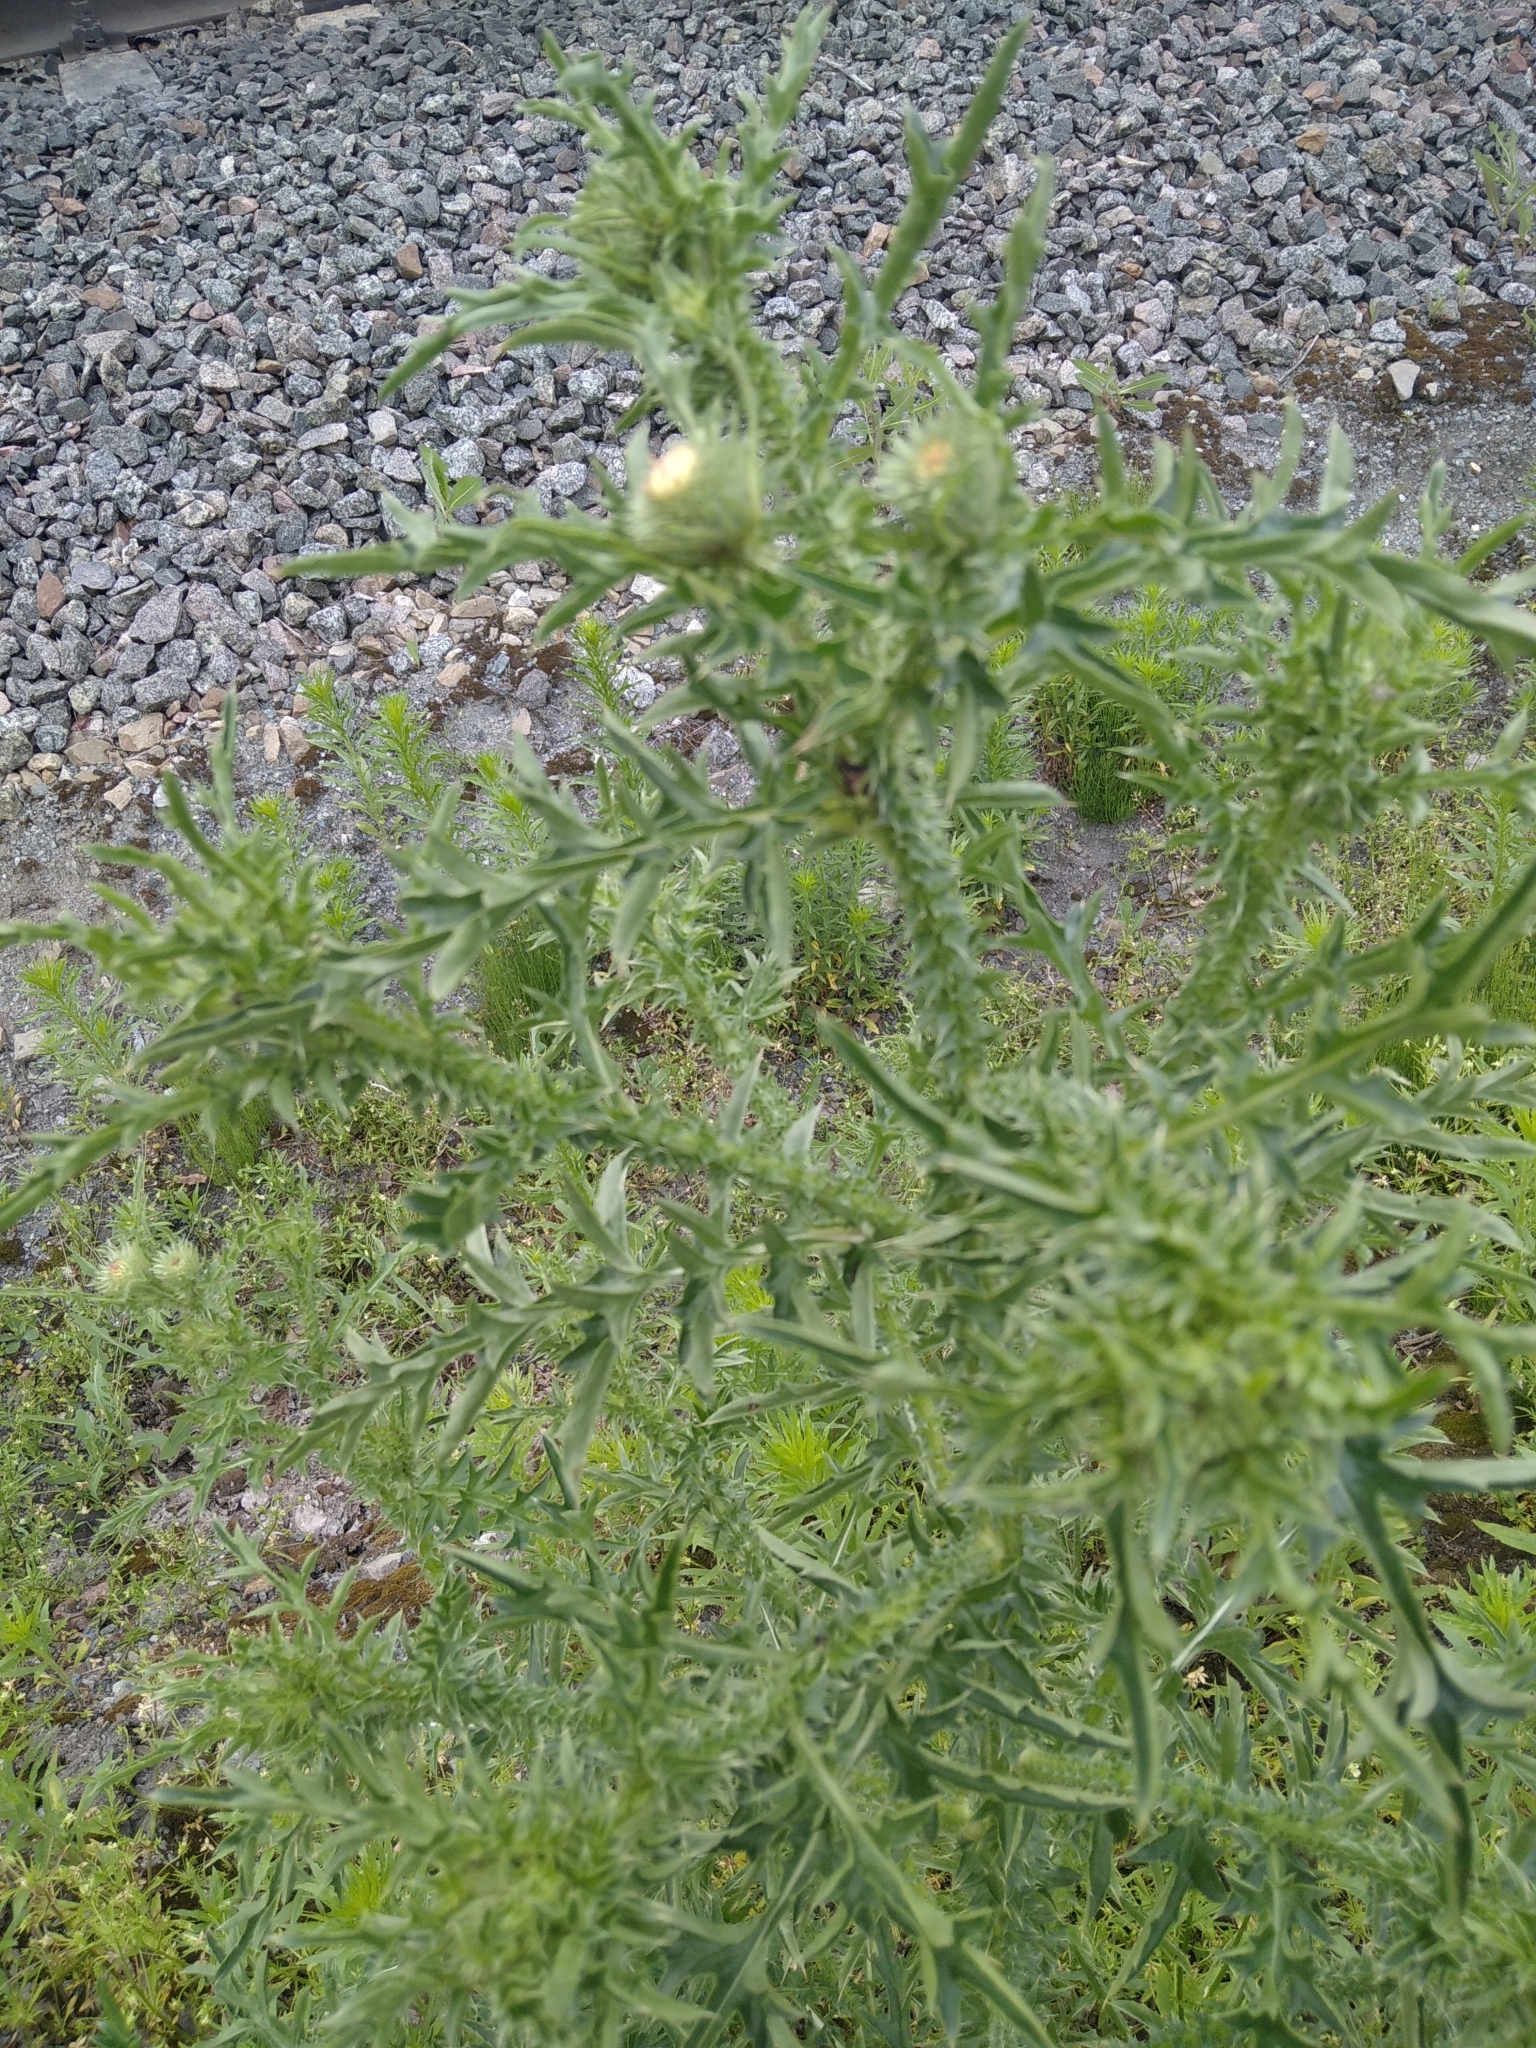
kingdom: Plantae
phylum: Tracheophyta
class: Magnoliopsida
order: Asterales
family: Asteraceae
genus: Carduus
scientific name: Carduus acanthoides
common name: Plumeless thistle
